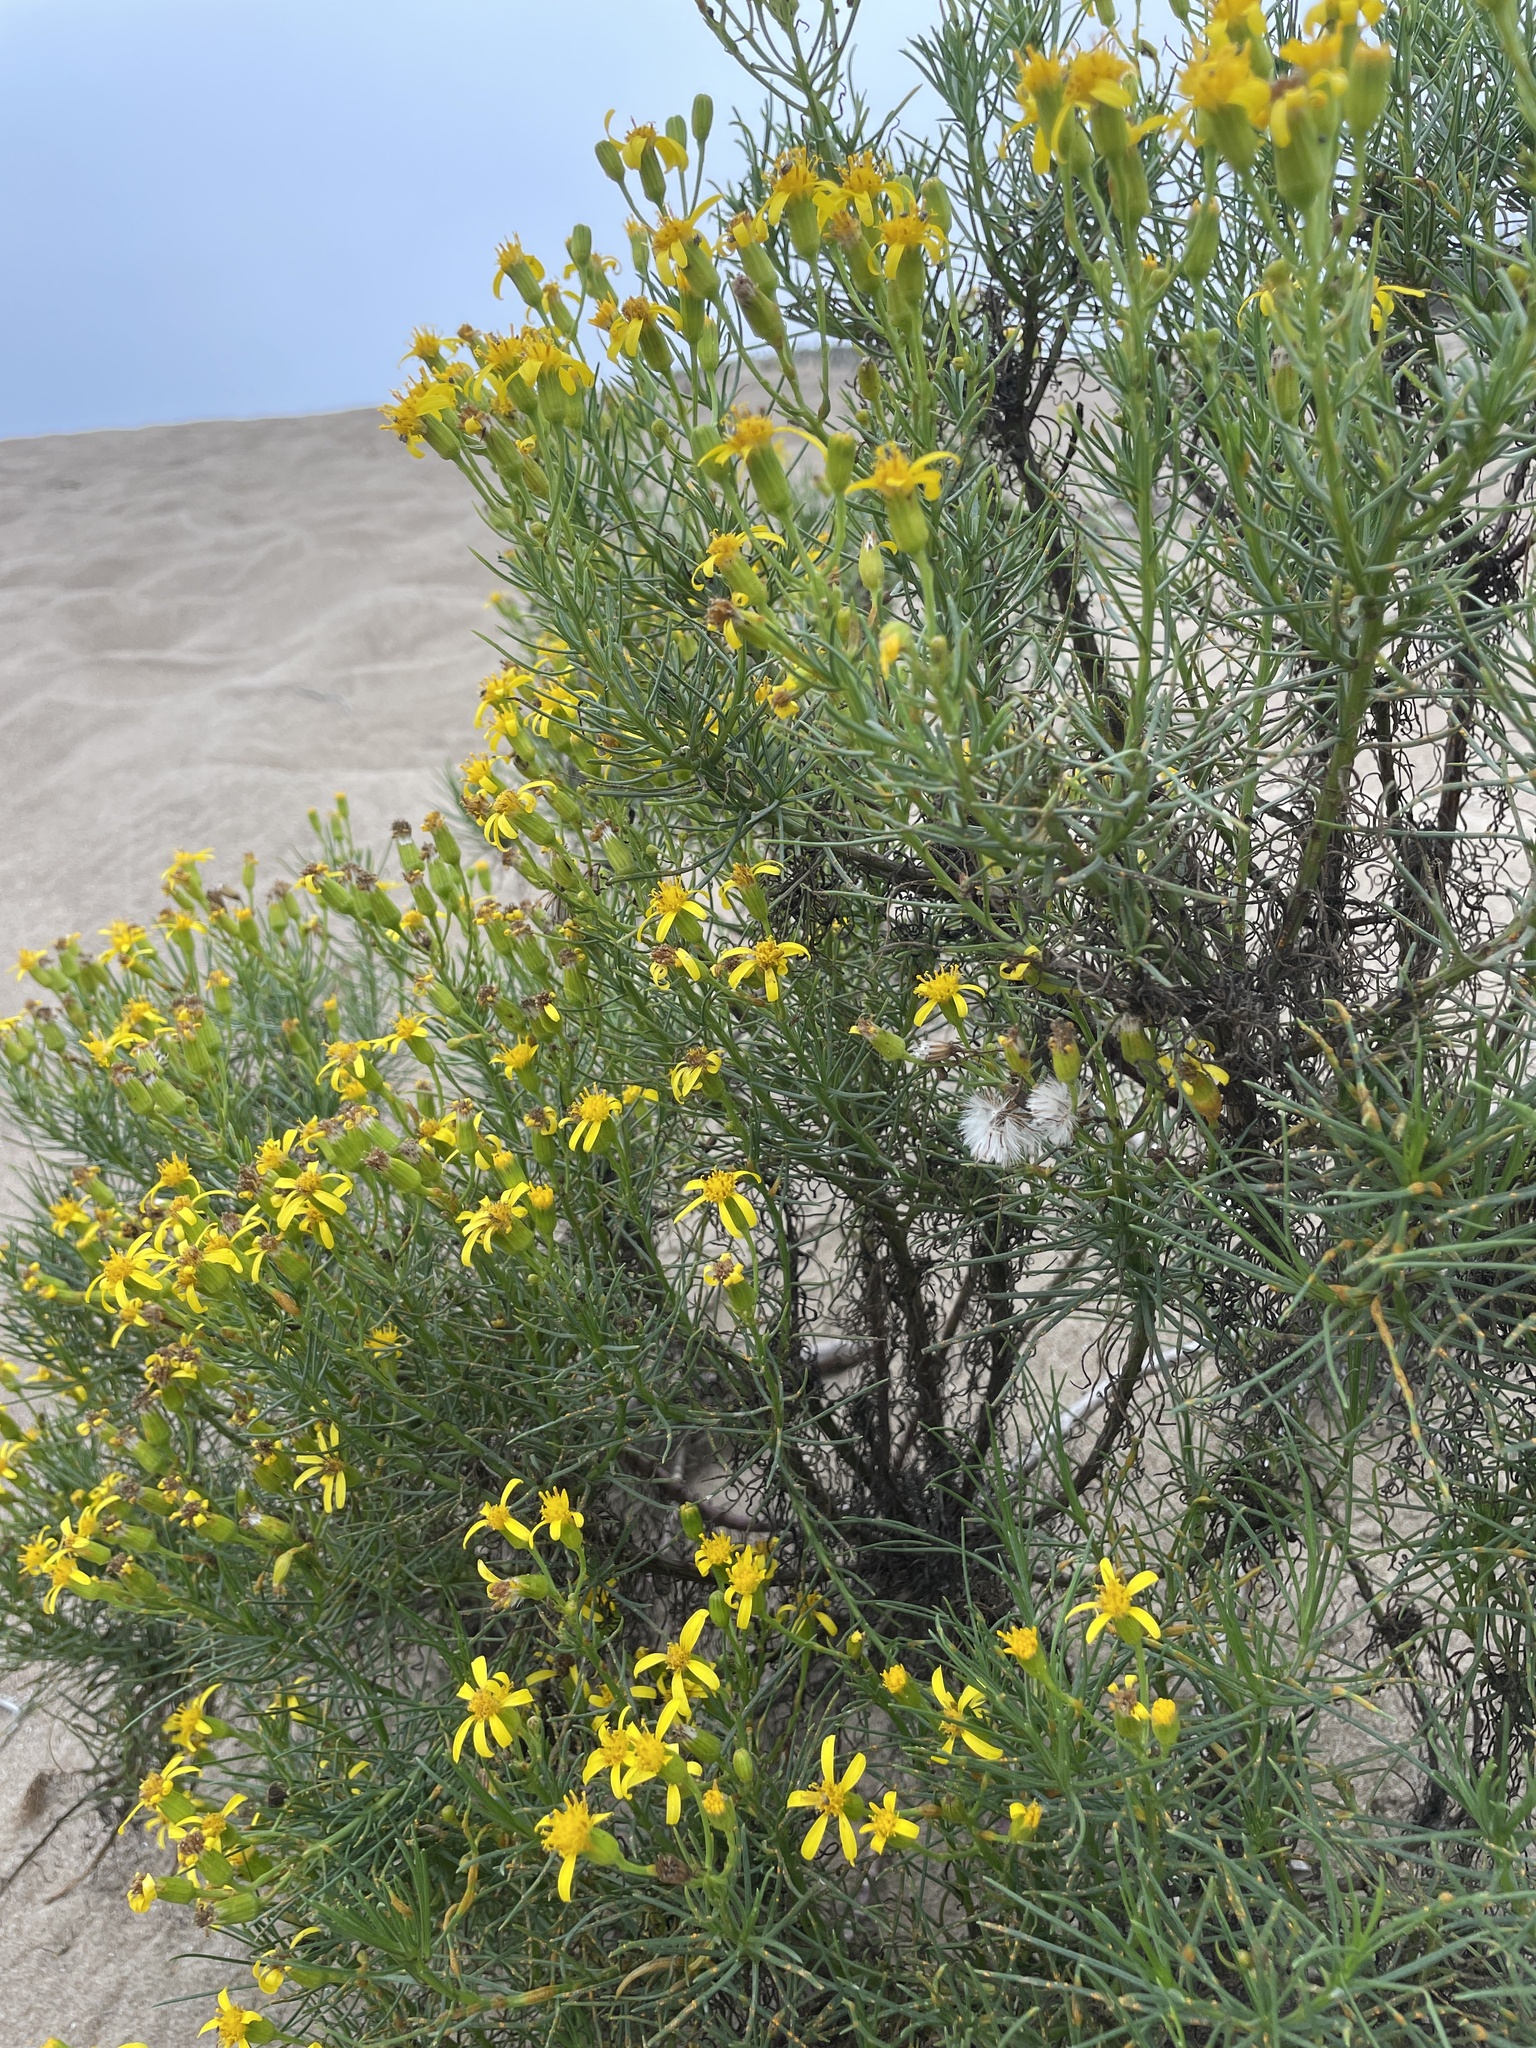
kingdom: Plantae
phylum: Tracheophyta
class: Magnoliopsida
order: Asterales
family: Asteraceae
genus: Senecio
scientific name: Senecio blochmaniae
